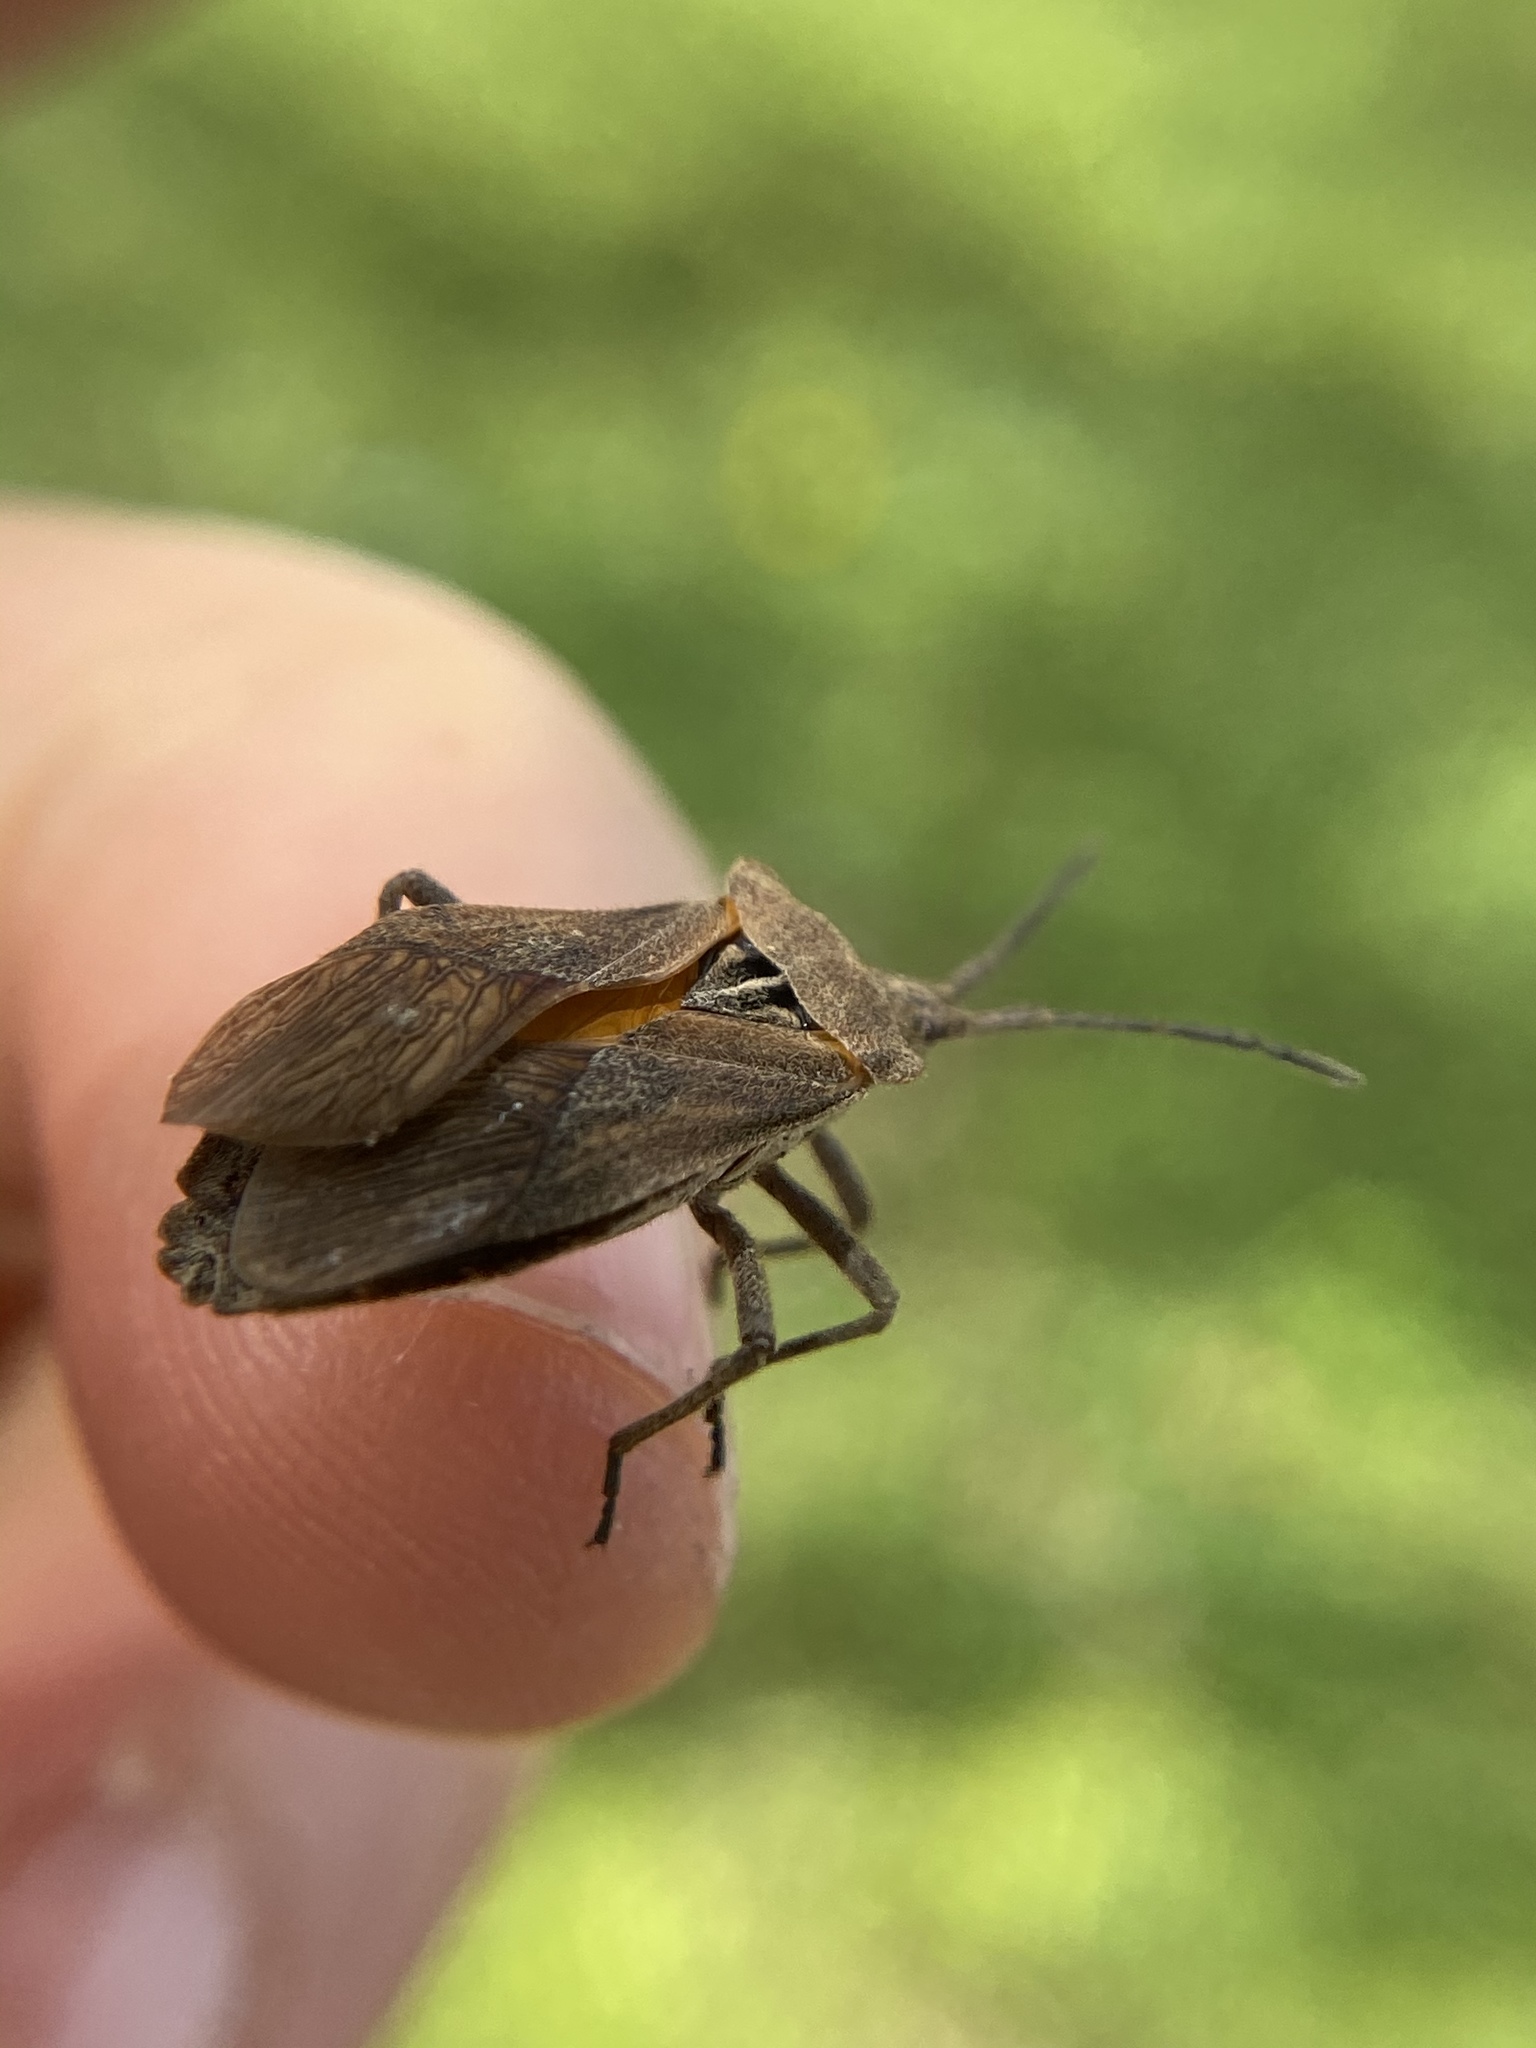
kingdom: Animalia
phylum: Arthropoda
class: Insecta
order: Hemiptera
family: Coreidae
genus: Eubule
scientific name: Eubule spartocerana
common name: Leaf-footed bug
